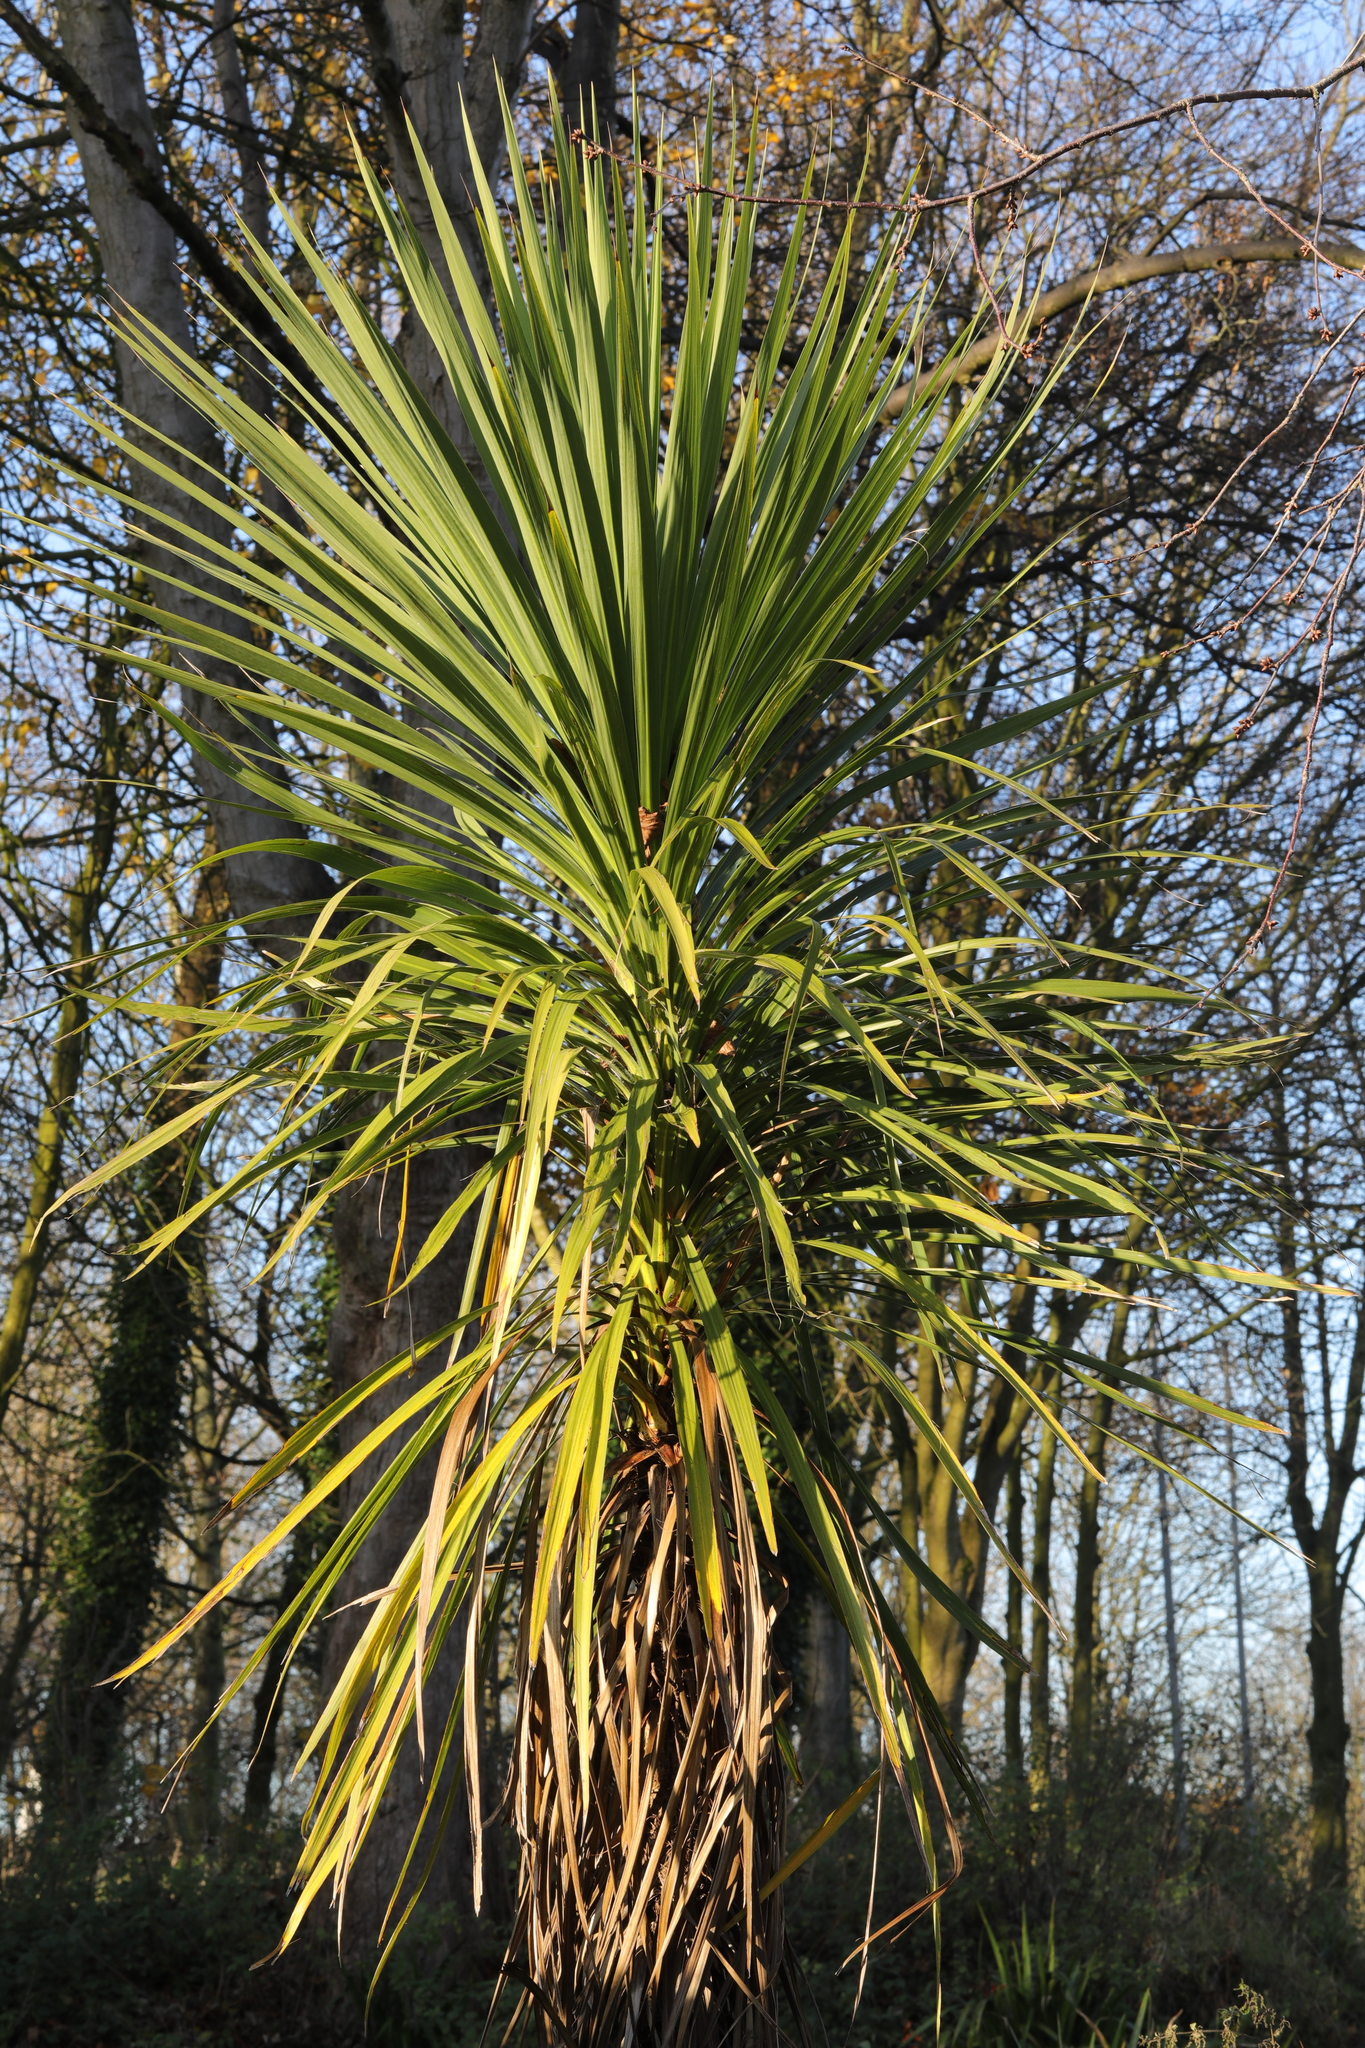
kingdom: Plantae
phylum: Tracheophyta
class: Liliopsida
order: Asparagales
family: Asparagaceae
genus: Cordyline
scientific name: Cordyline australis
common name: Cabbage-palm
